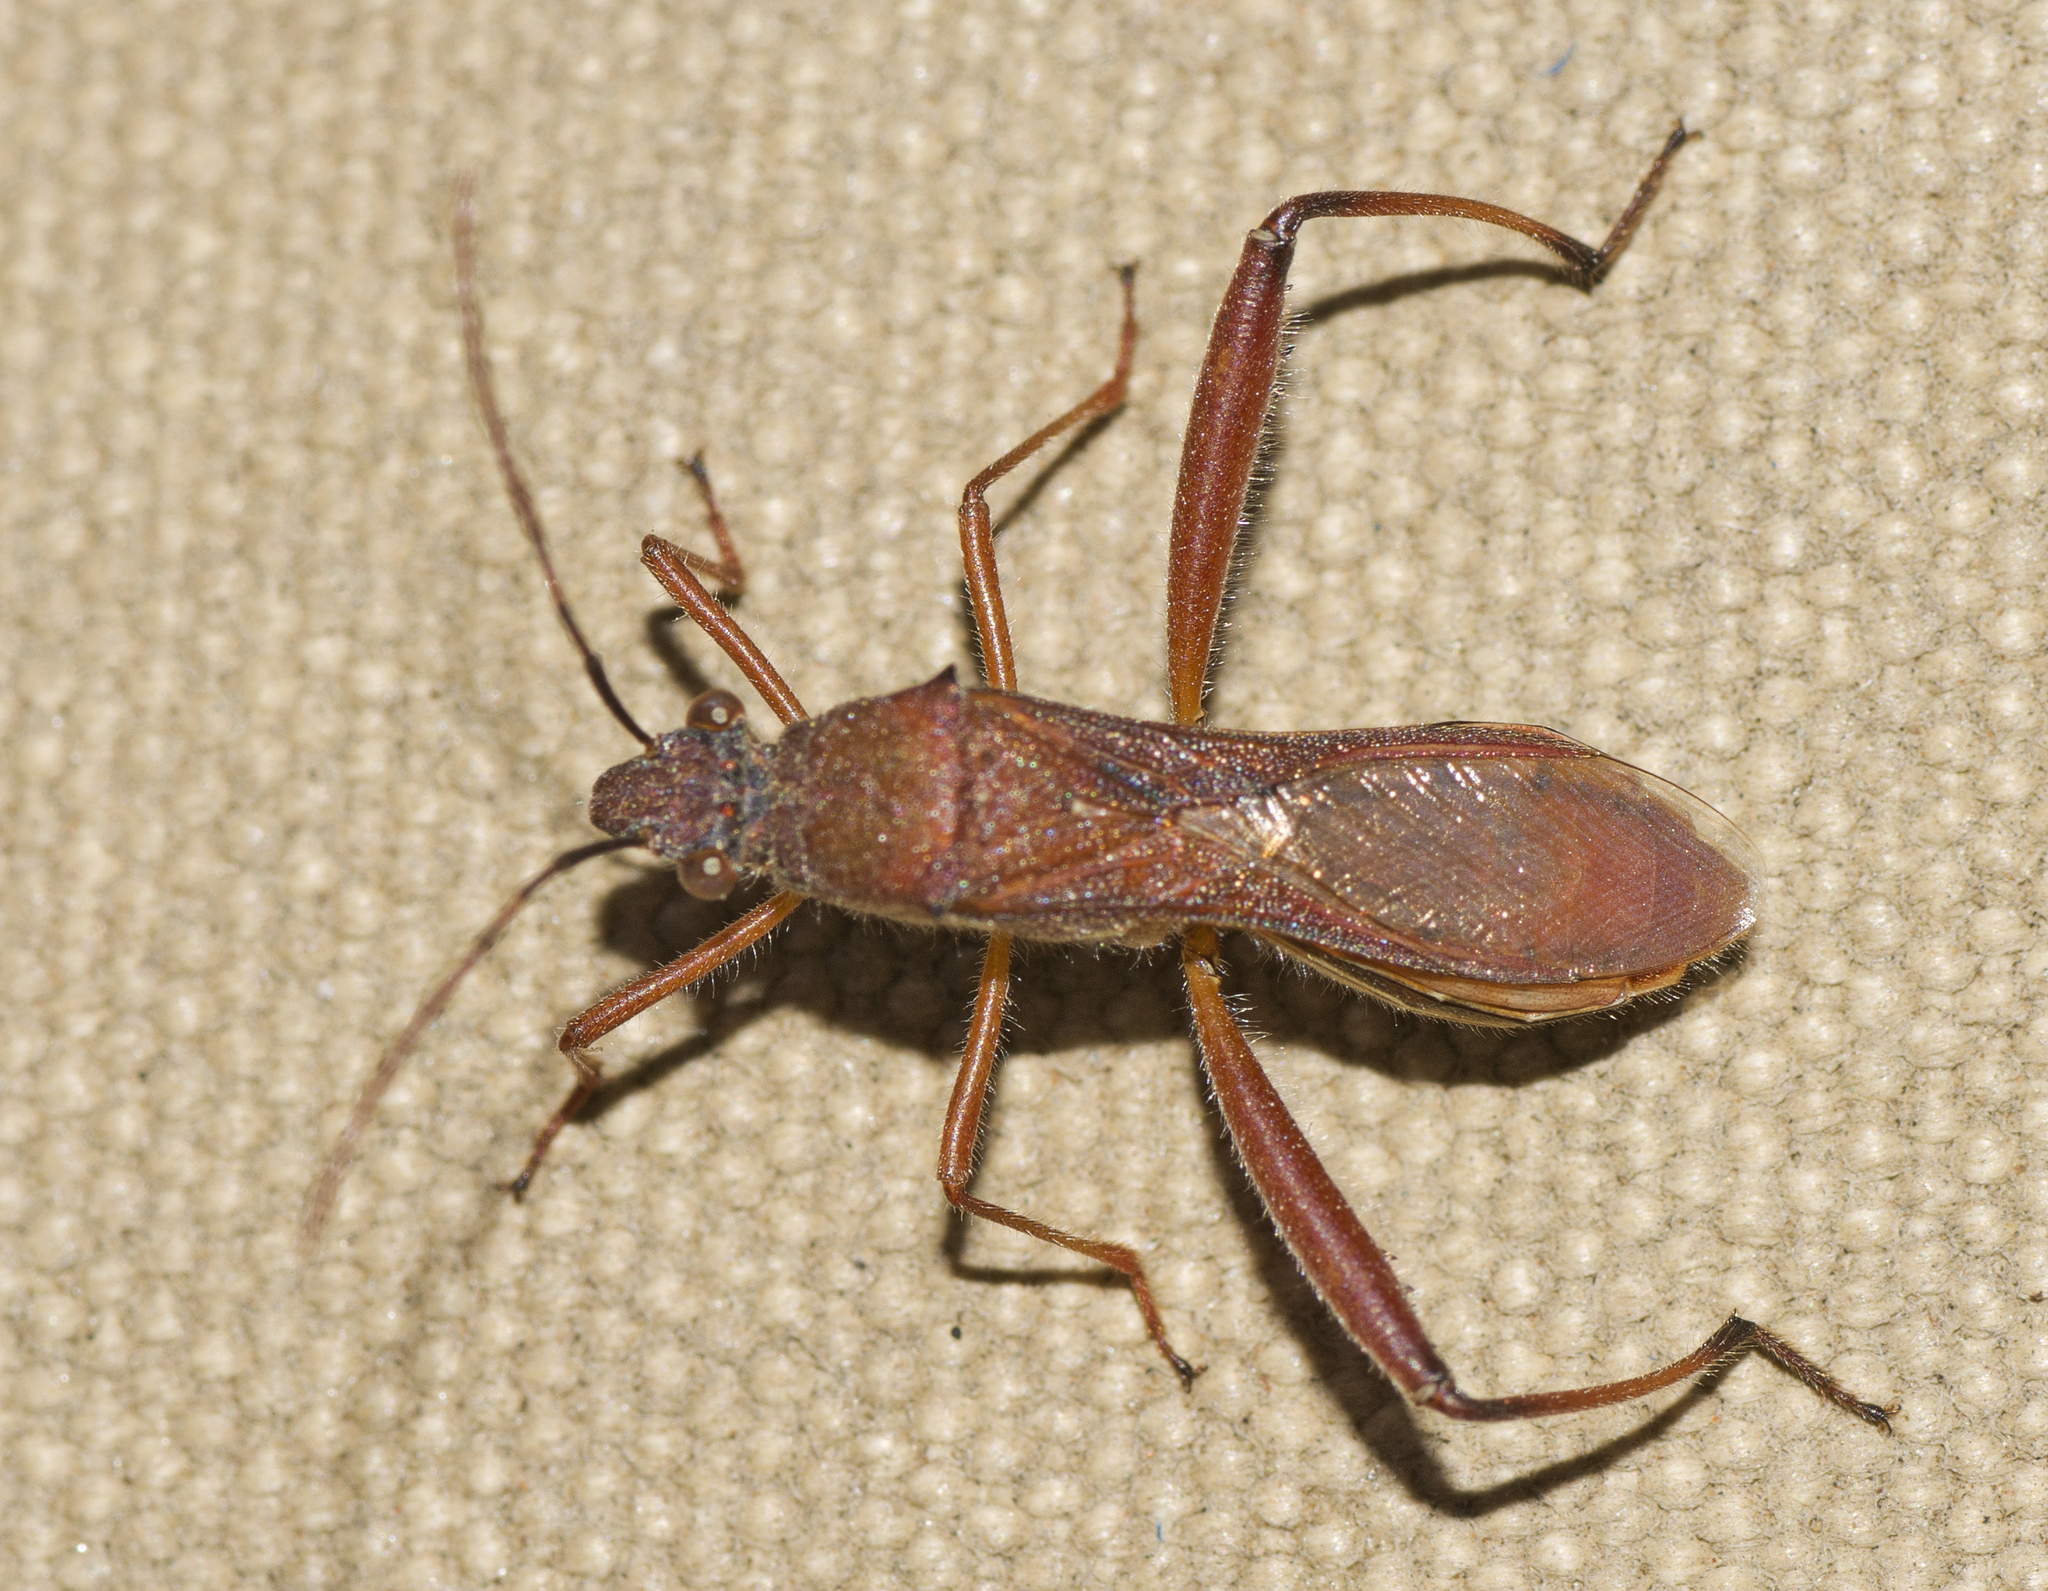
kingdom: Animalia
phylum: Arthropoda
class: Insecta
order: Hemiptera
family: Alydidae
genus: Riptortus
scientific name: Riptortus linearis
